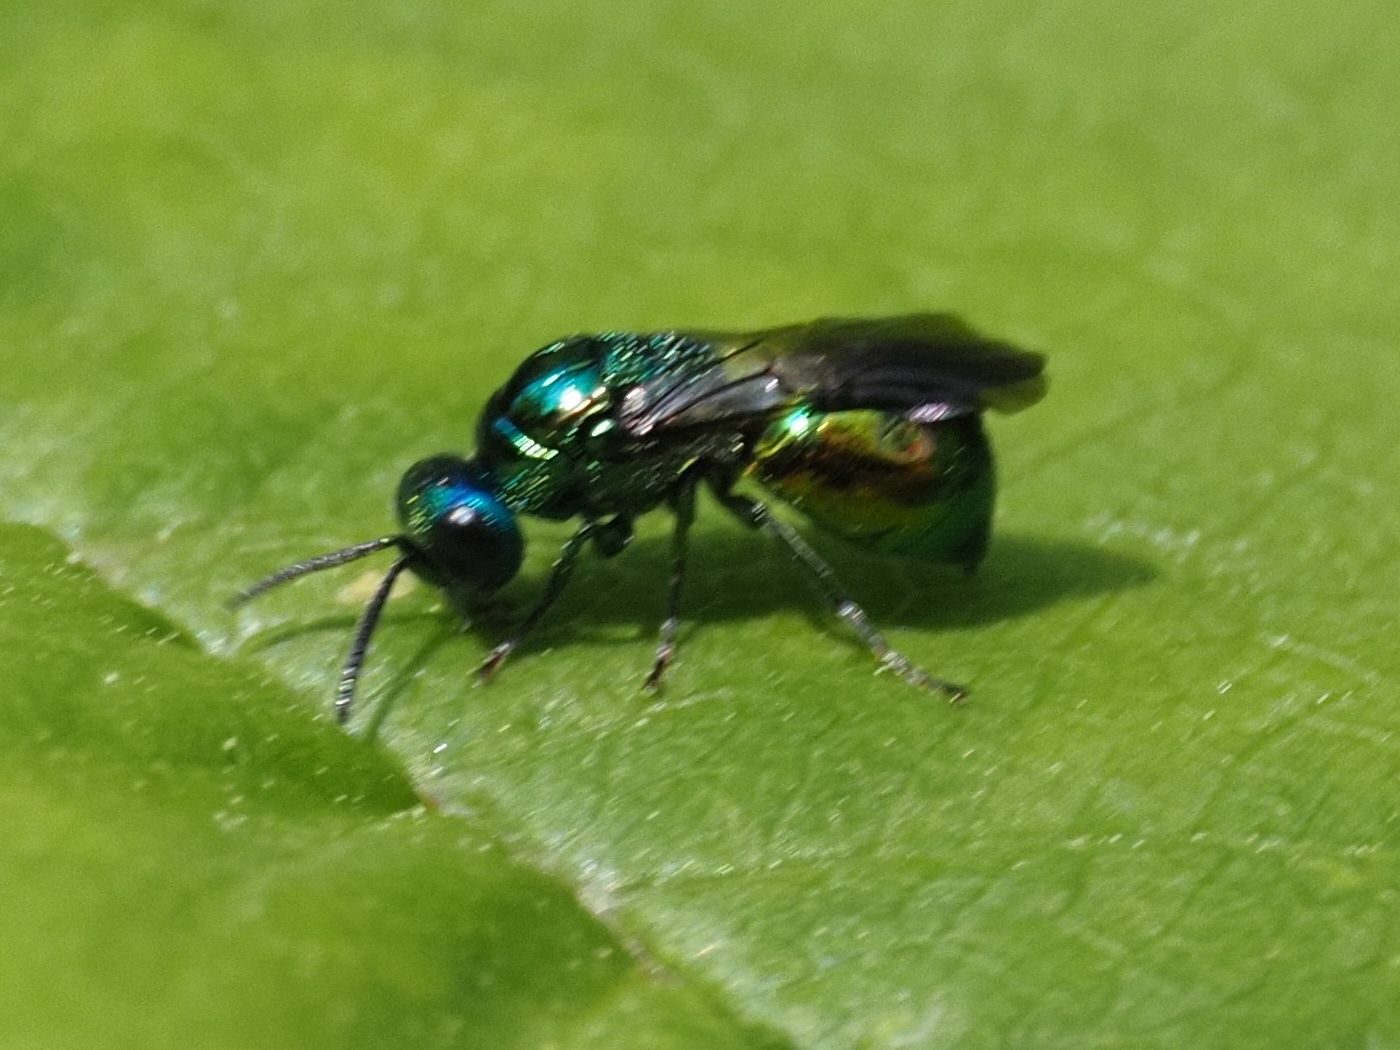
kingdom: Animalia
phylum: Arthropoda
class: Insecta
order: Hymenoptera
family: Chrysididae
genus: Omalus
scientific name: Omalus aeneus
